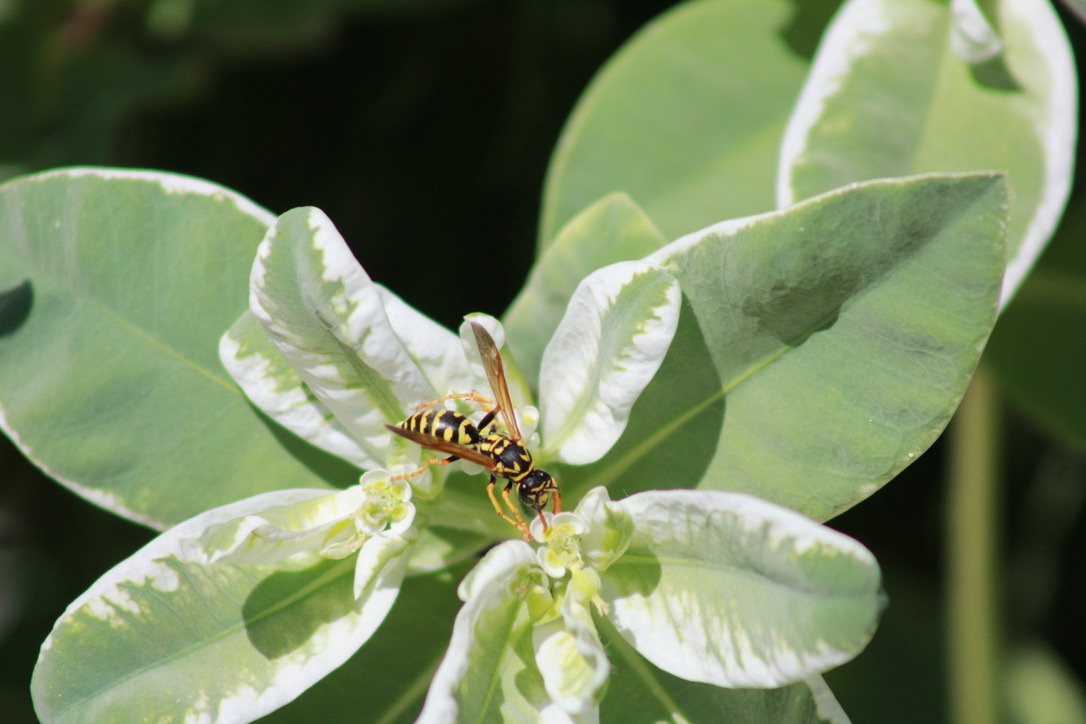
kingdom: Animalia
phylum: Arthropoda
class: Insecta
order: Hymenoptera
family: Eumenidae
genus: Polistes
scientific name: Polistes dominula
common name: Paper wasp
